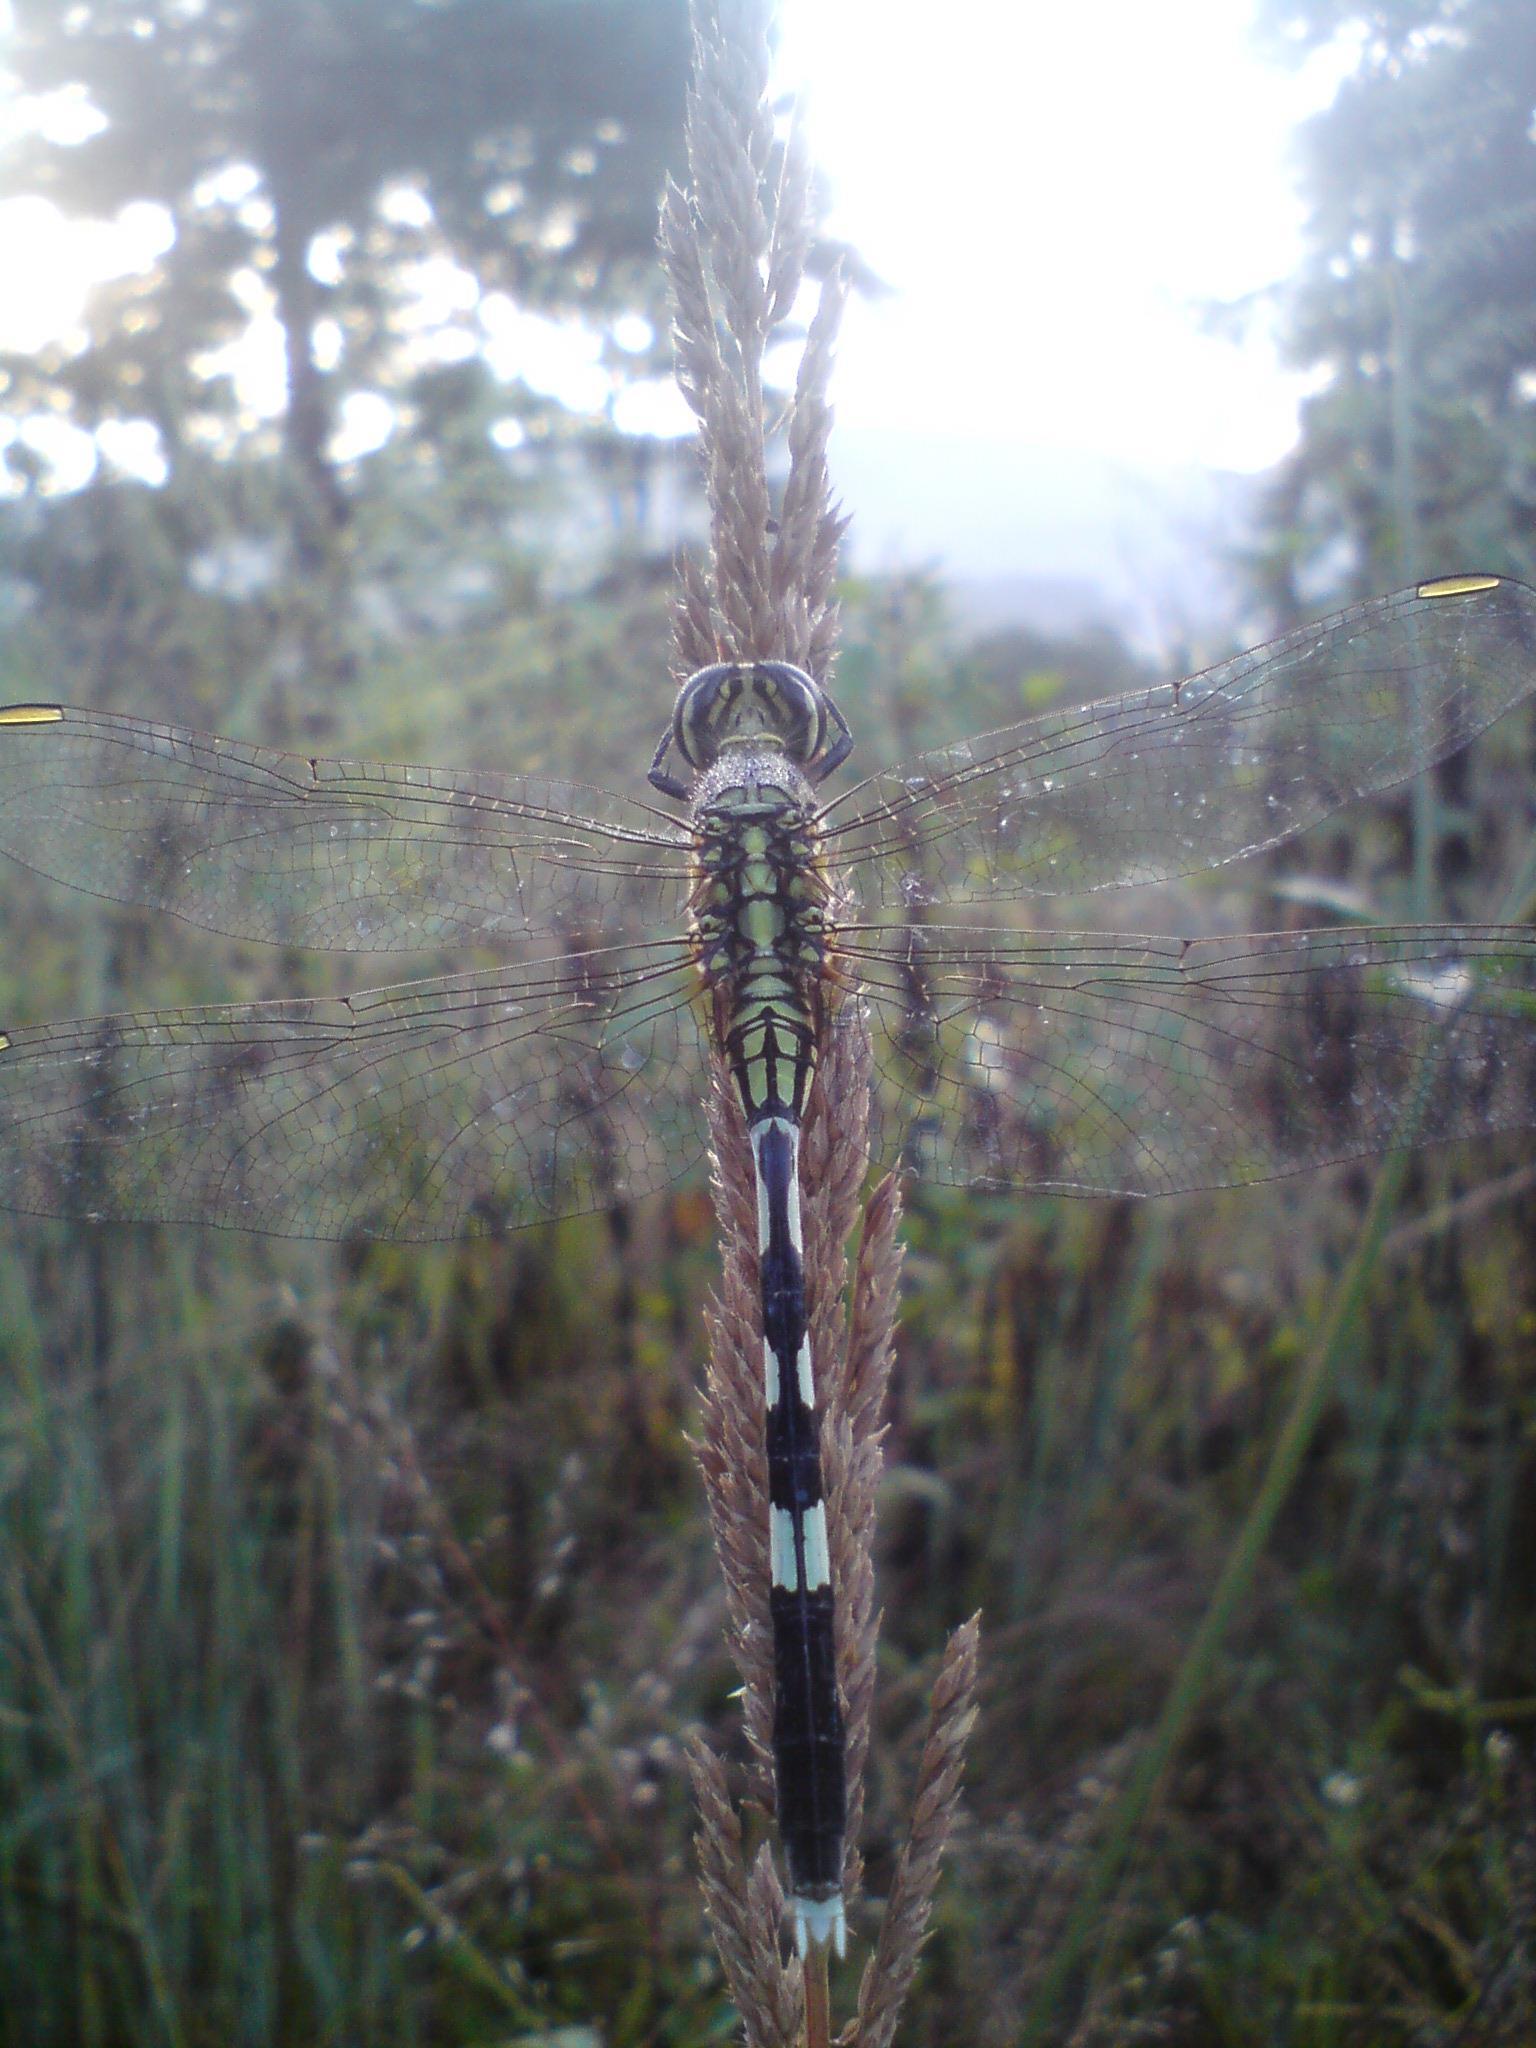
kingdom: Animalia
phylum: Arthropoda
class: Insecta
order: Odonata
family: Libellulidae
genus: Orthetrum
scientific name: Orthetrum sabina
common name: Slender skimmer
